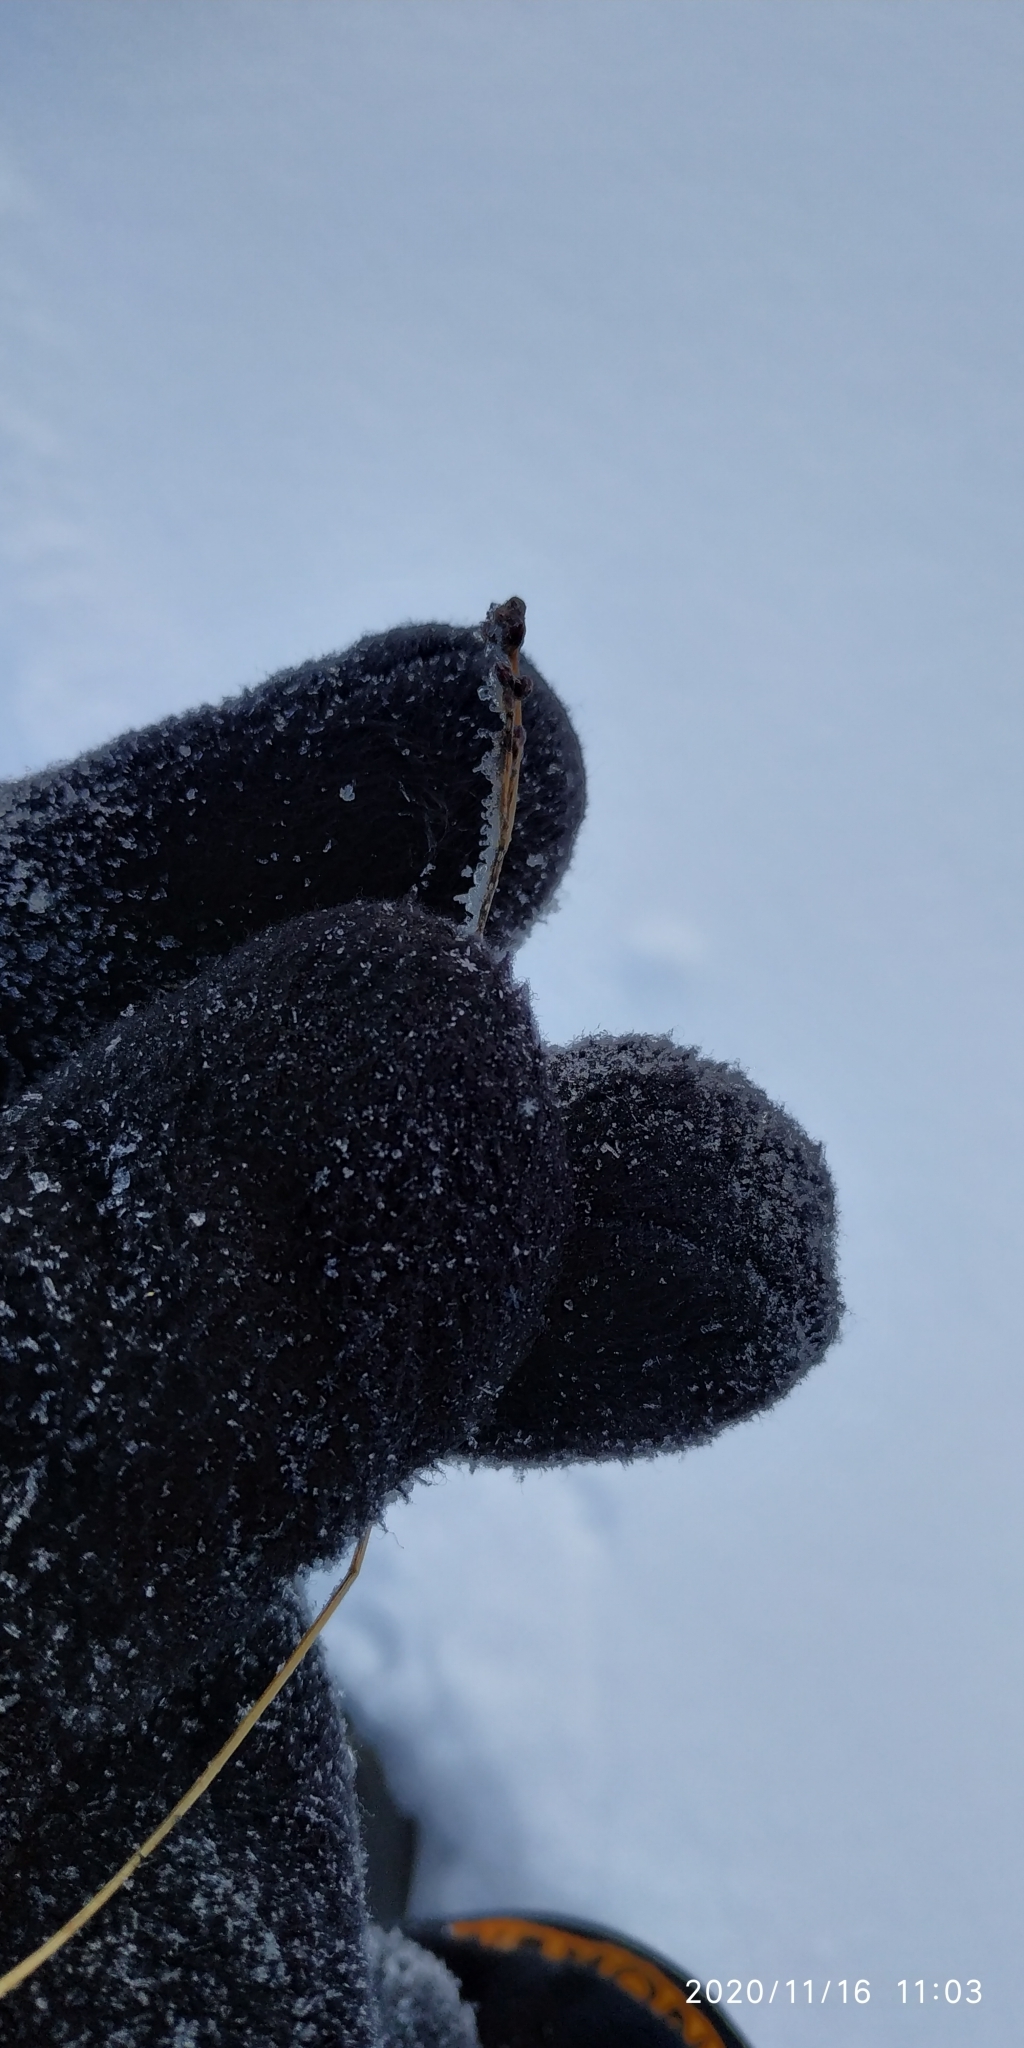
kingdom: Plantae
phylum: Tracheophyta
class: Liliopsida
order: Poales
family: Juncaceae
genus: Luzula
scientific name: Luzula multiflora
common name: Heath wood-rush
